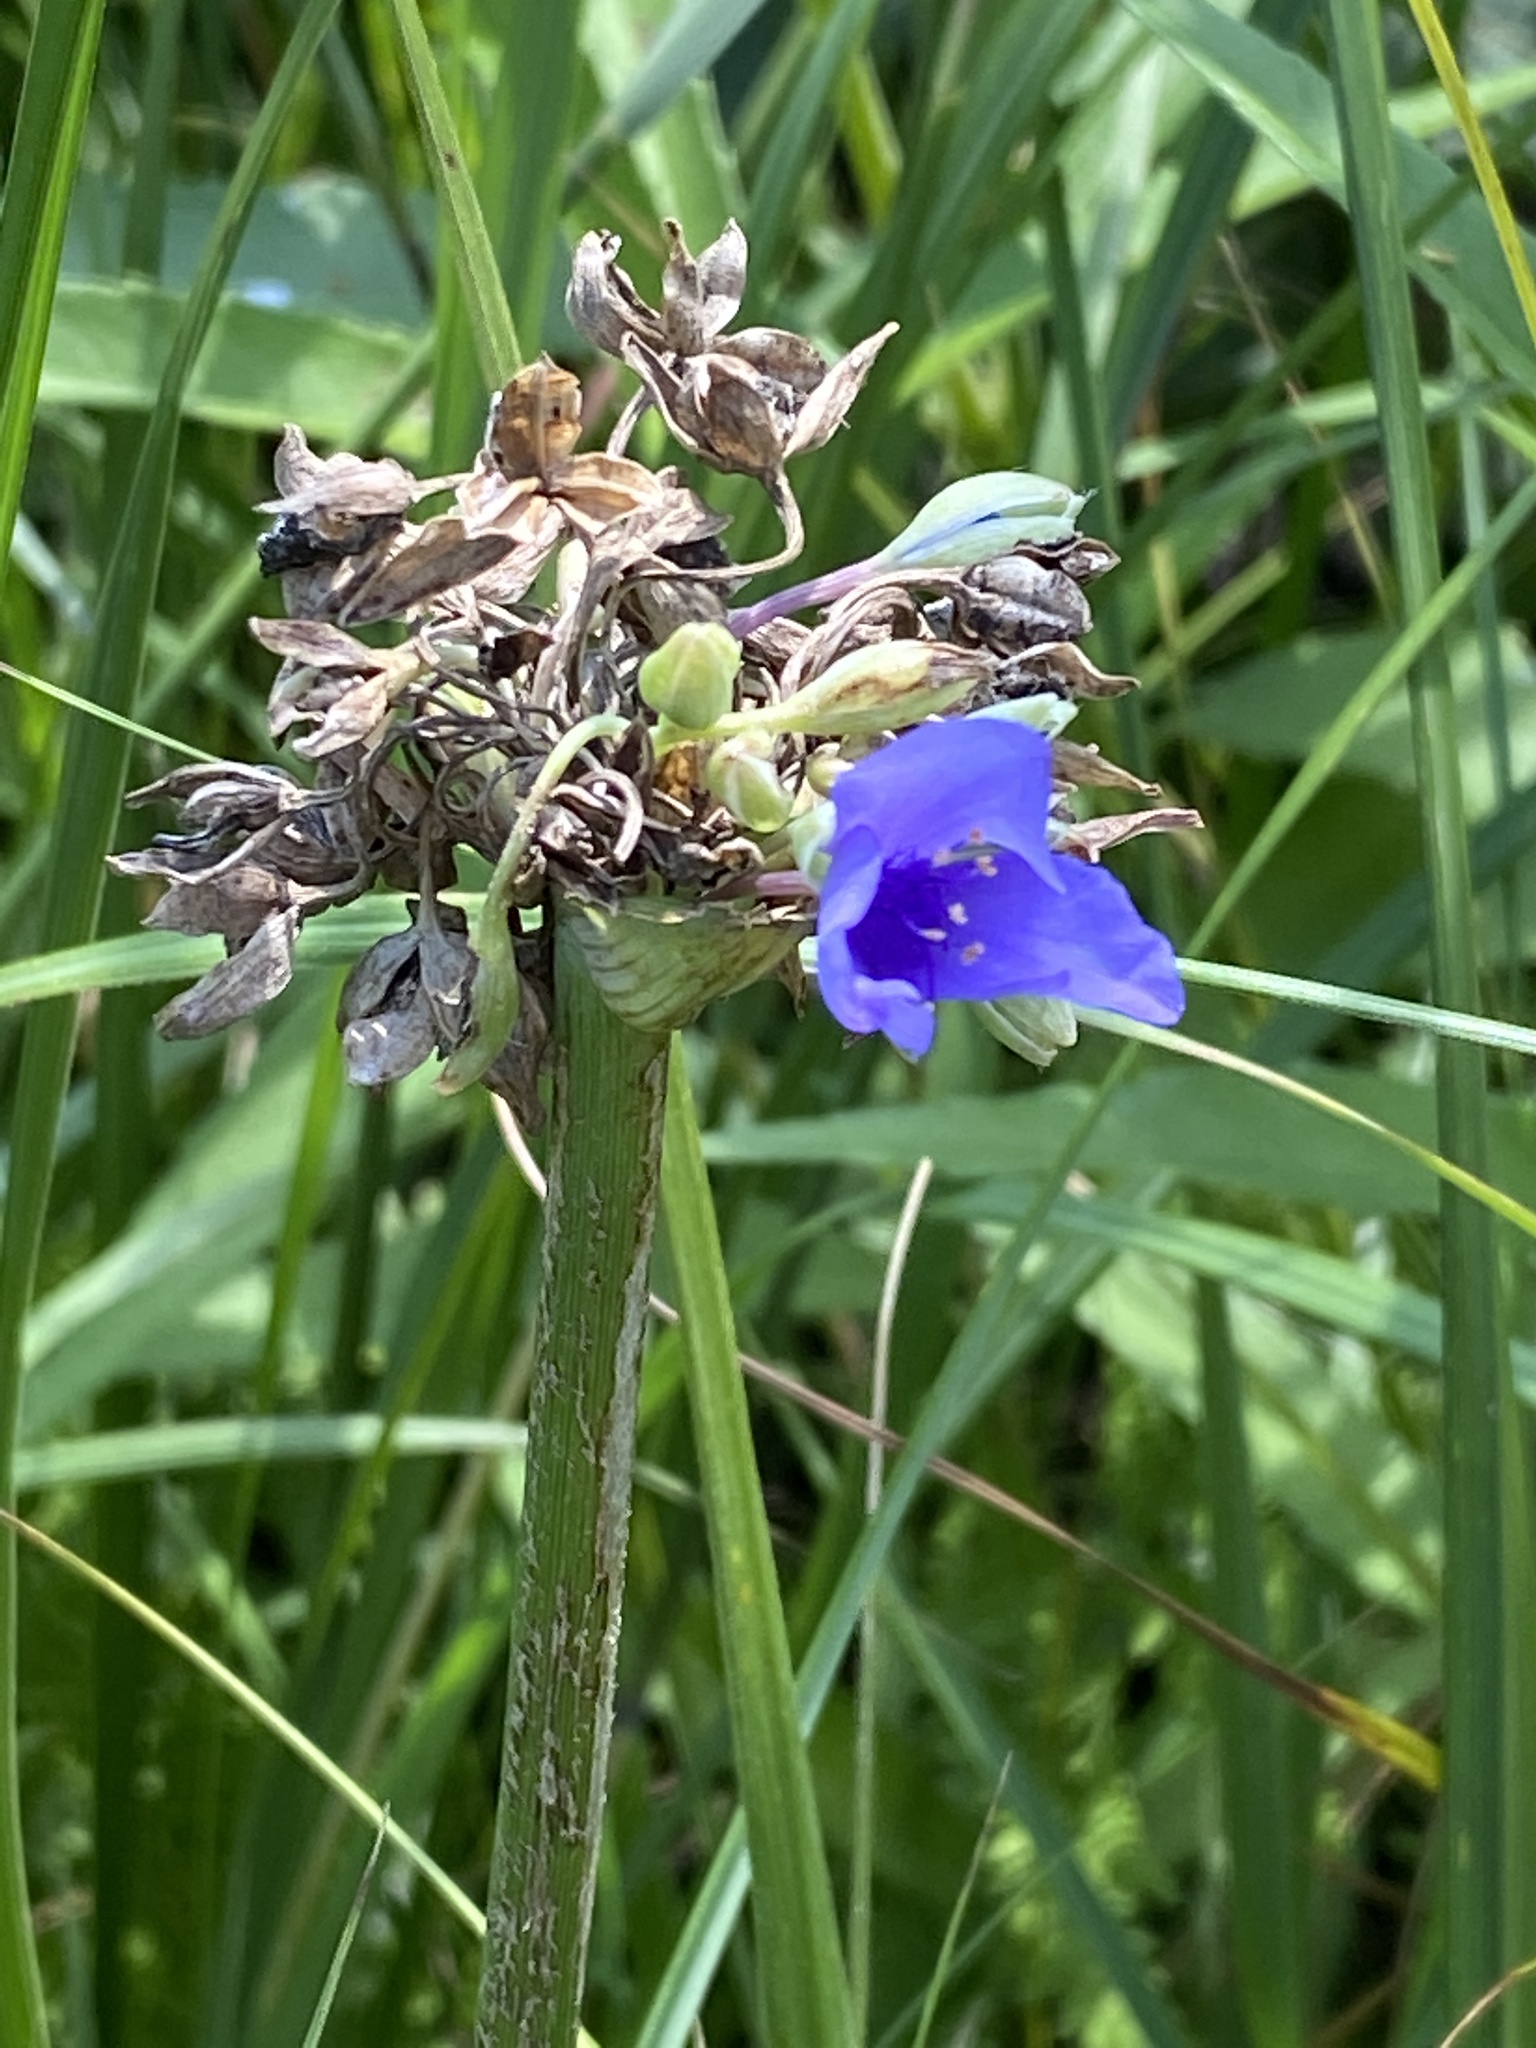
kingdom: Plantae
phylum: Tracheophyta
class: Liliopsida
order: Commelinales
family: Commelinaceae
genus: Tradescantia
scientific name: Tradescantia ohiensis
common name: Ohio spiderwort
